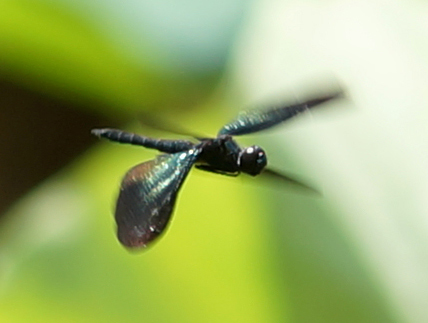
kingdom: Animalia
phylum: Arthropoda
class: Insecta
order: Odonata
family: Libellulidae
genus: Rhyothemis
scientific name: Rhyothemis plutonia
